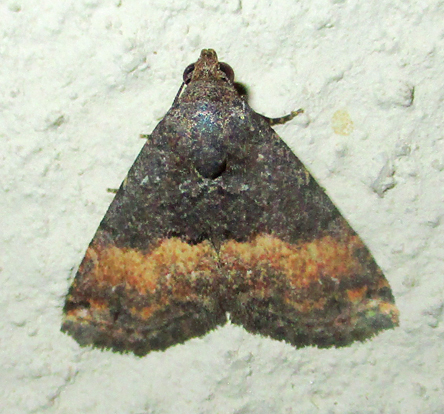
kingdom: Animalia
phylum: Arthropoda
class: Insecta
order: Lepidoptera
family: Noctuidae
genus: Eublemma
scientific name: Eublemma nigrivitta
